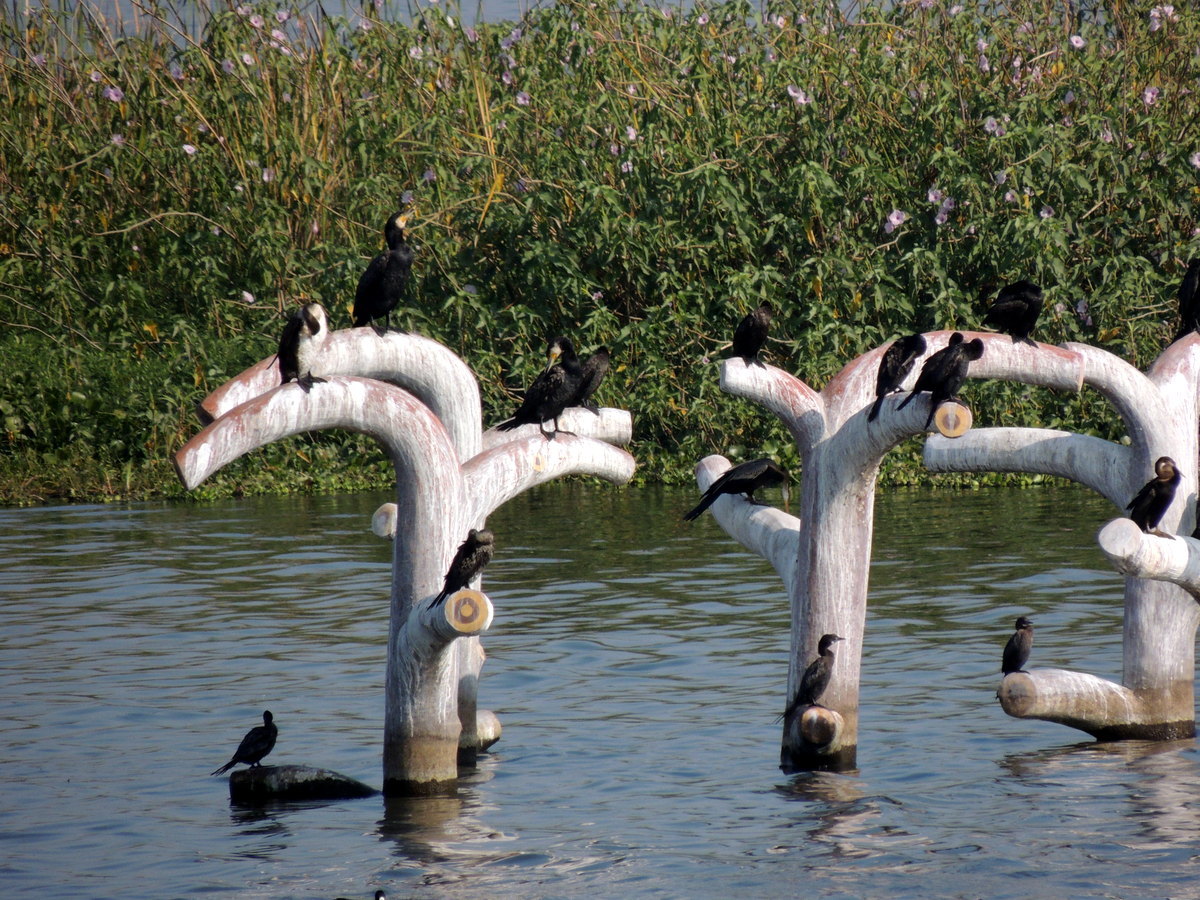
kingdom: Animalia
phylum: Chordata
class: Aves
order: Suliformes
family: Phalacrocoracidae
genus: Phalacrocorax
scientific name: Phalacrocorax carbo
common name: Great cormorant
